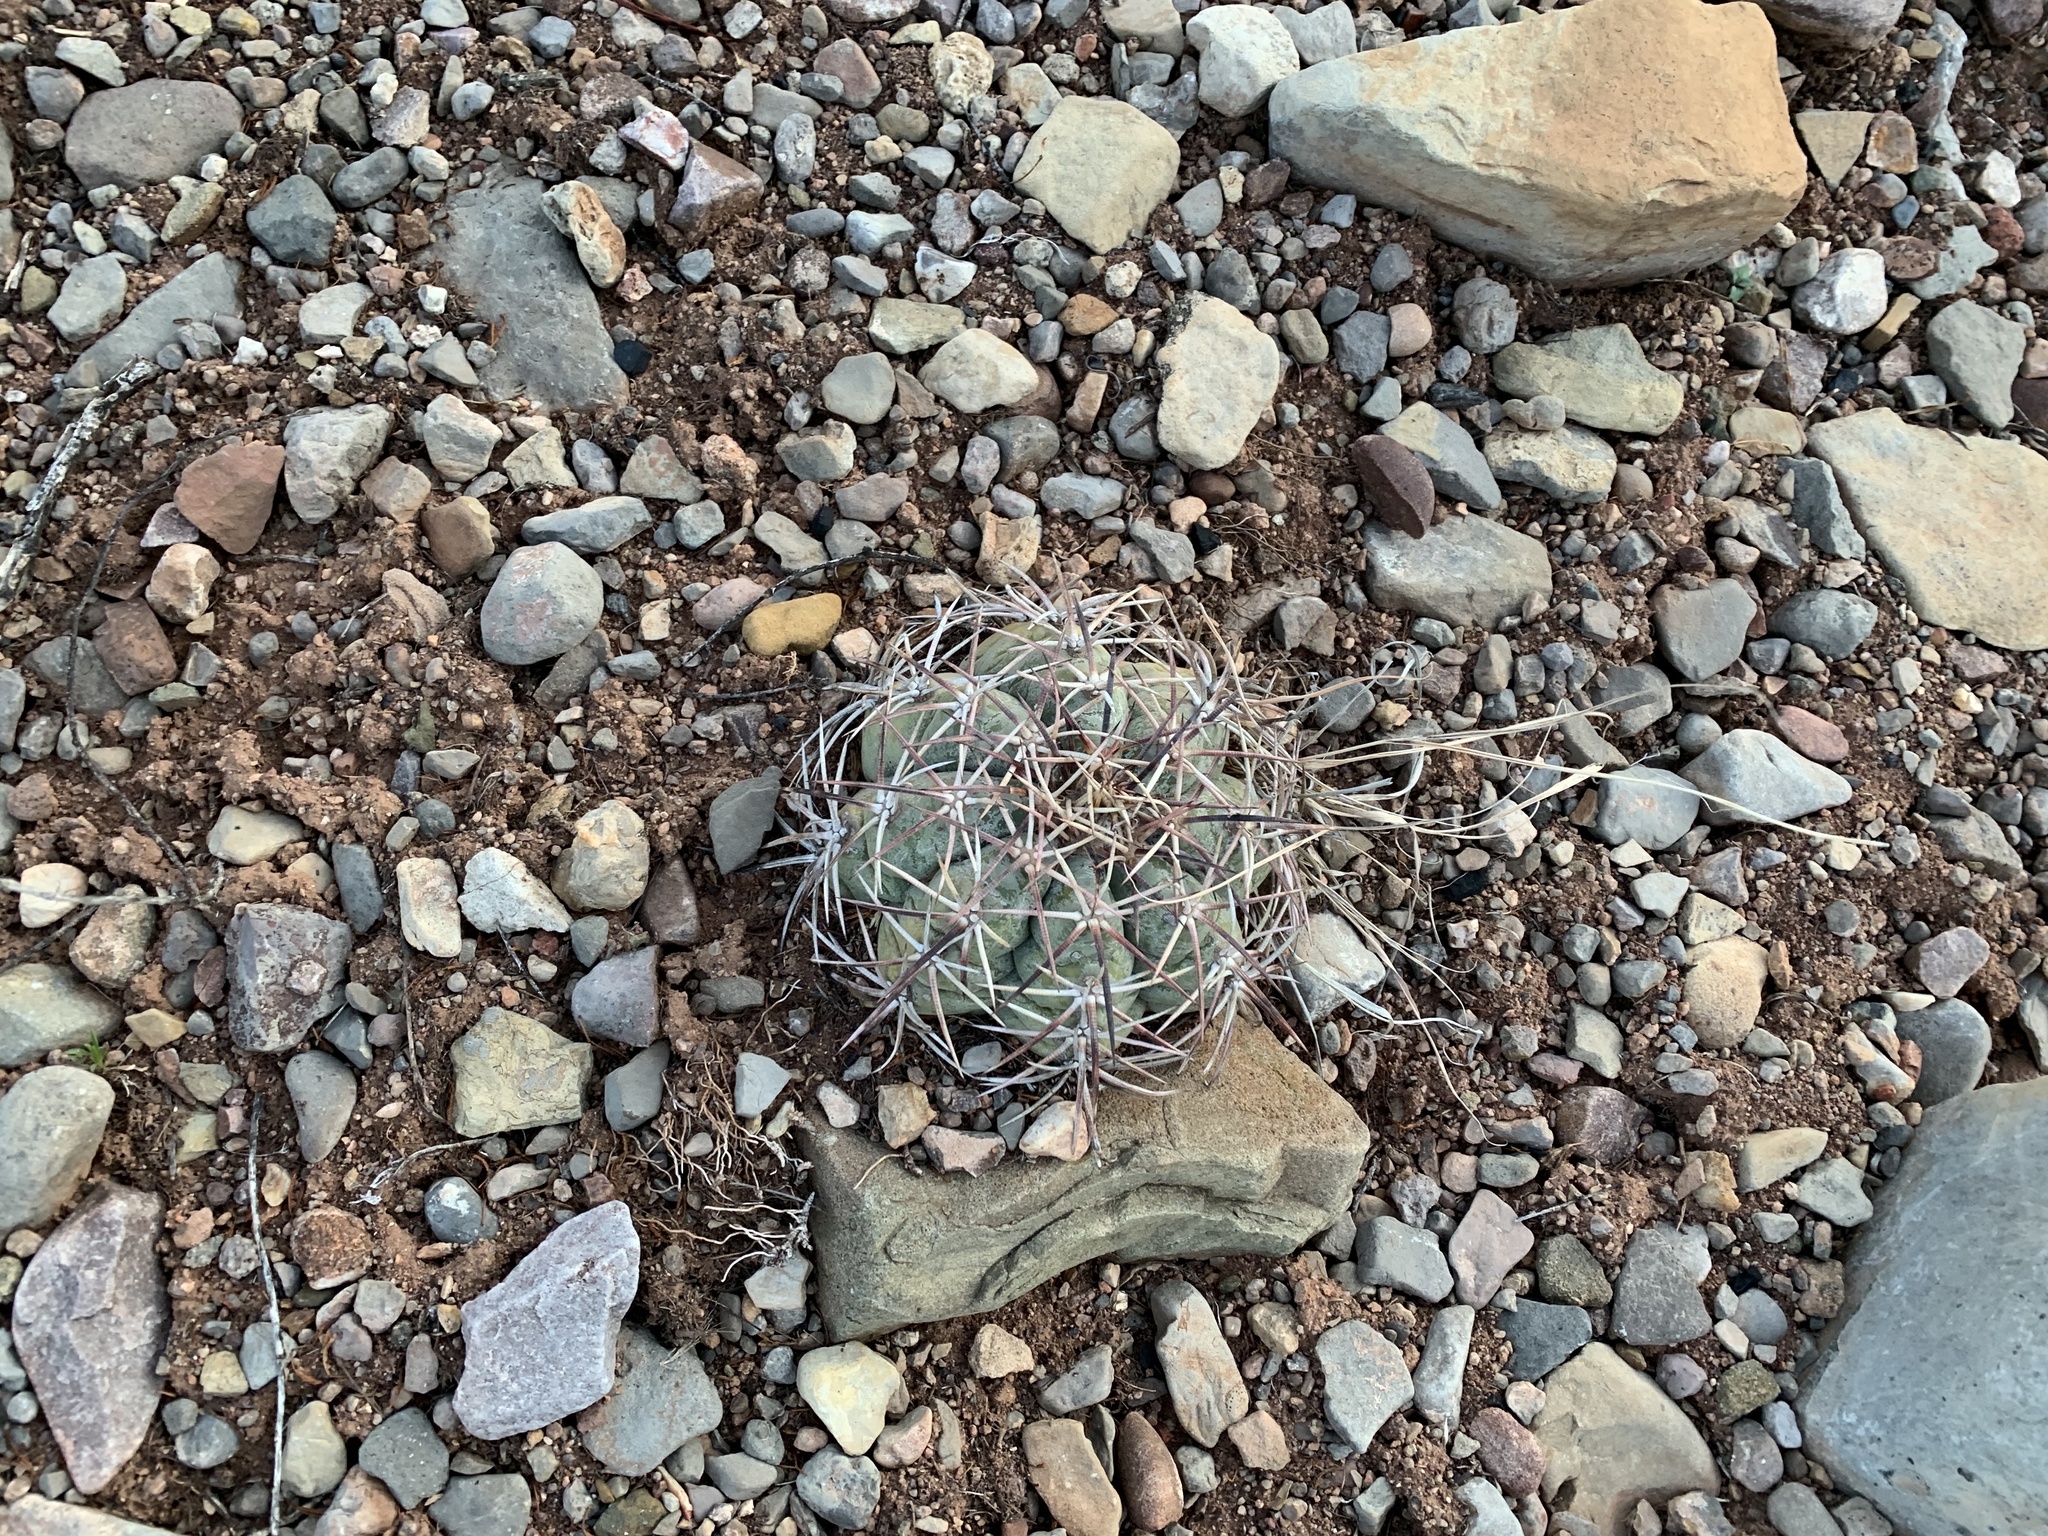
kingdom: Plantae
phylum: Tracheophyta
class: Magnoliopsida
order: Caryophyllales
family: Cactaceae
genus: Echinocactus
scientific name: Echinocactus horizonthalonius
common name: Devilshead
